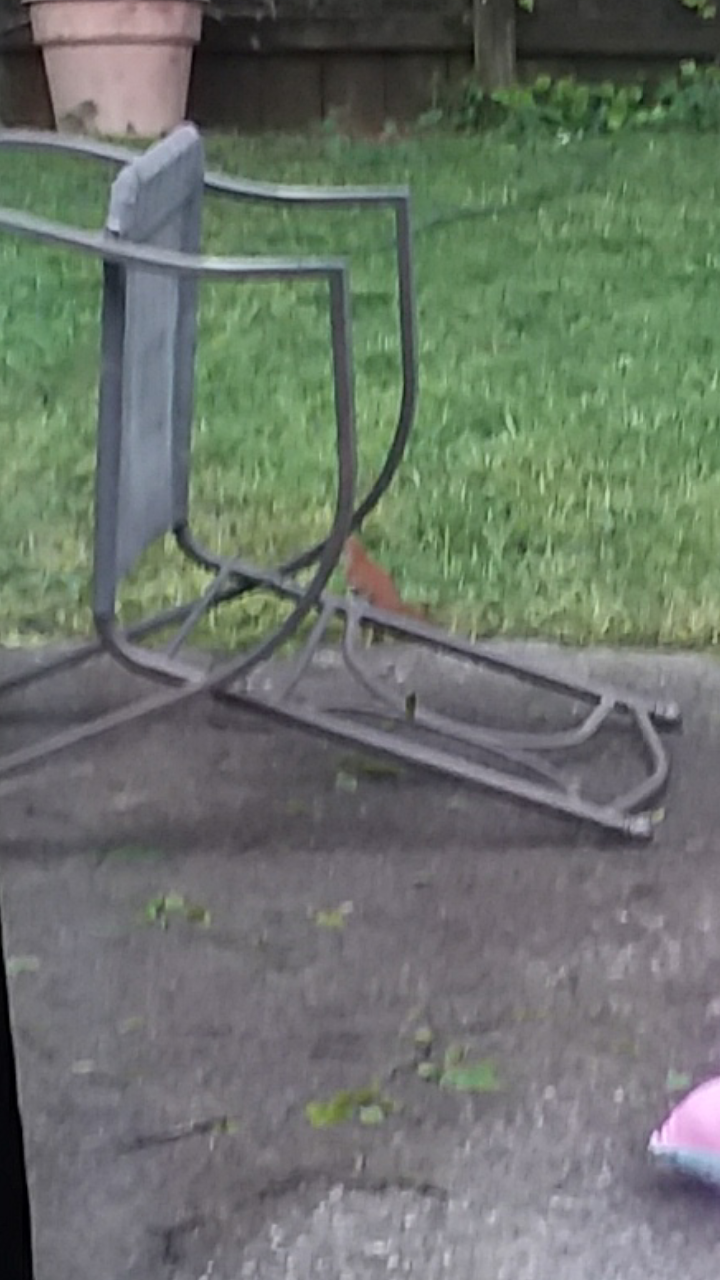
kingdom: Animalia
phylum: Chordata
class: Aves
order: Passeriformes
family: Mimidae
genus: Toxostoma
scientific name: Toxostoma rufum
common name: Brown thrasher
